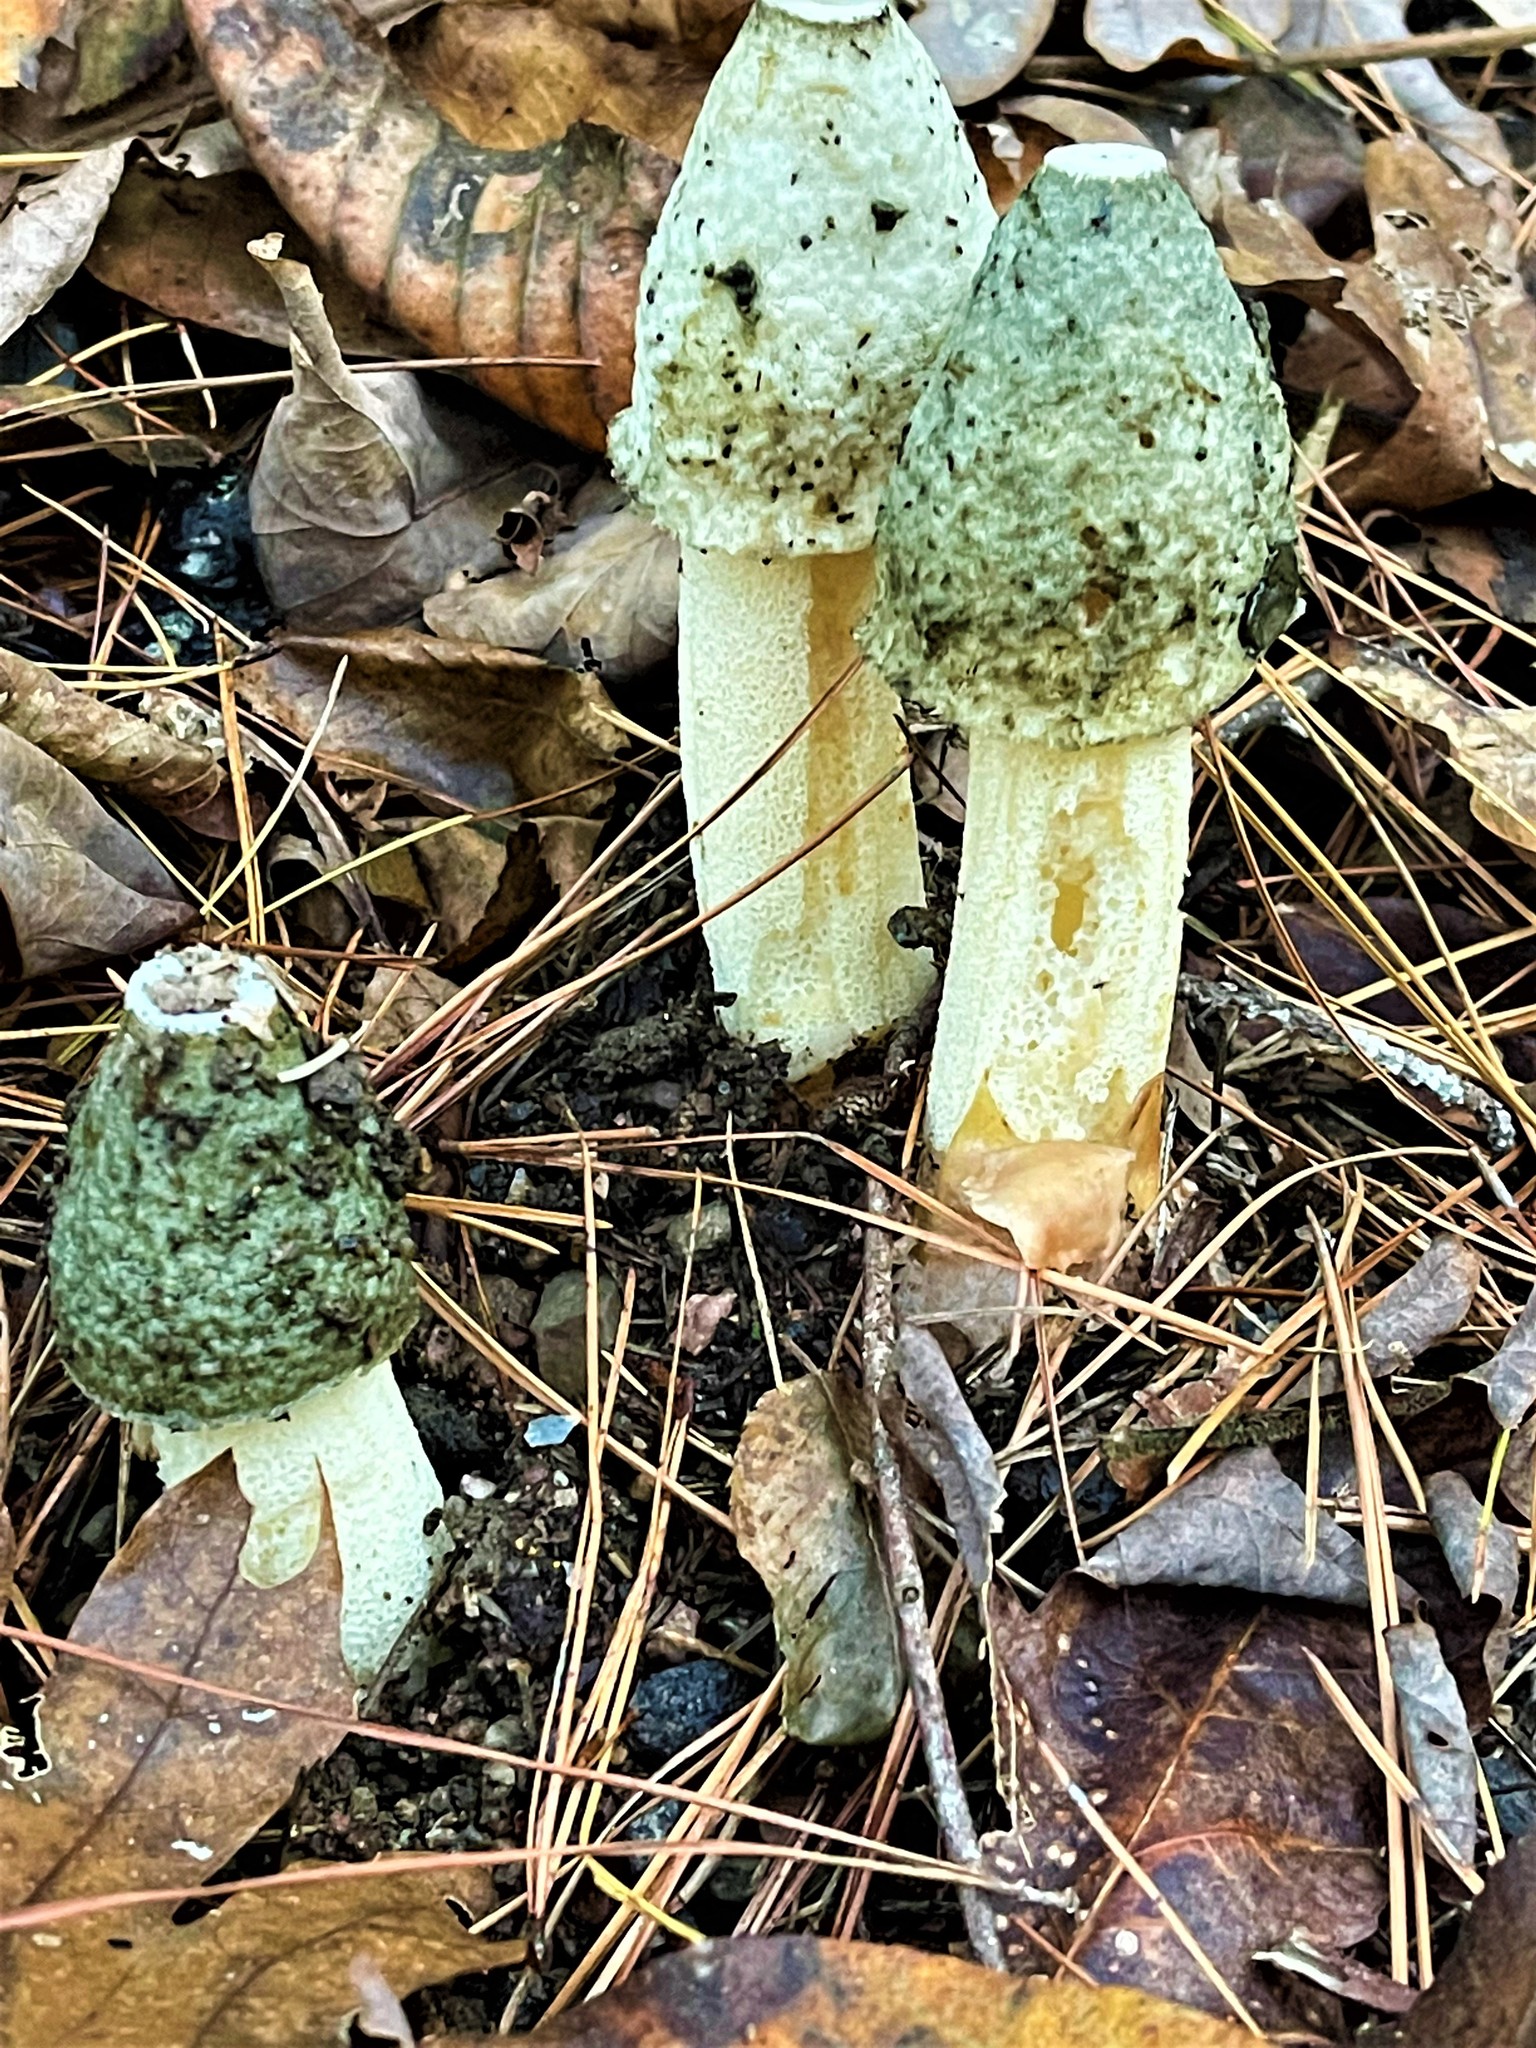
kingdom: Fungi
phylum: Basidiomycota
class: Agaricomycetes
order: Phallales
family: Phallaceae
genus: Phallus
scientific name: Phallus ravenelii
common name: Ravenel's stinkhorn
